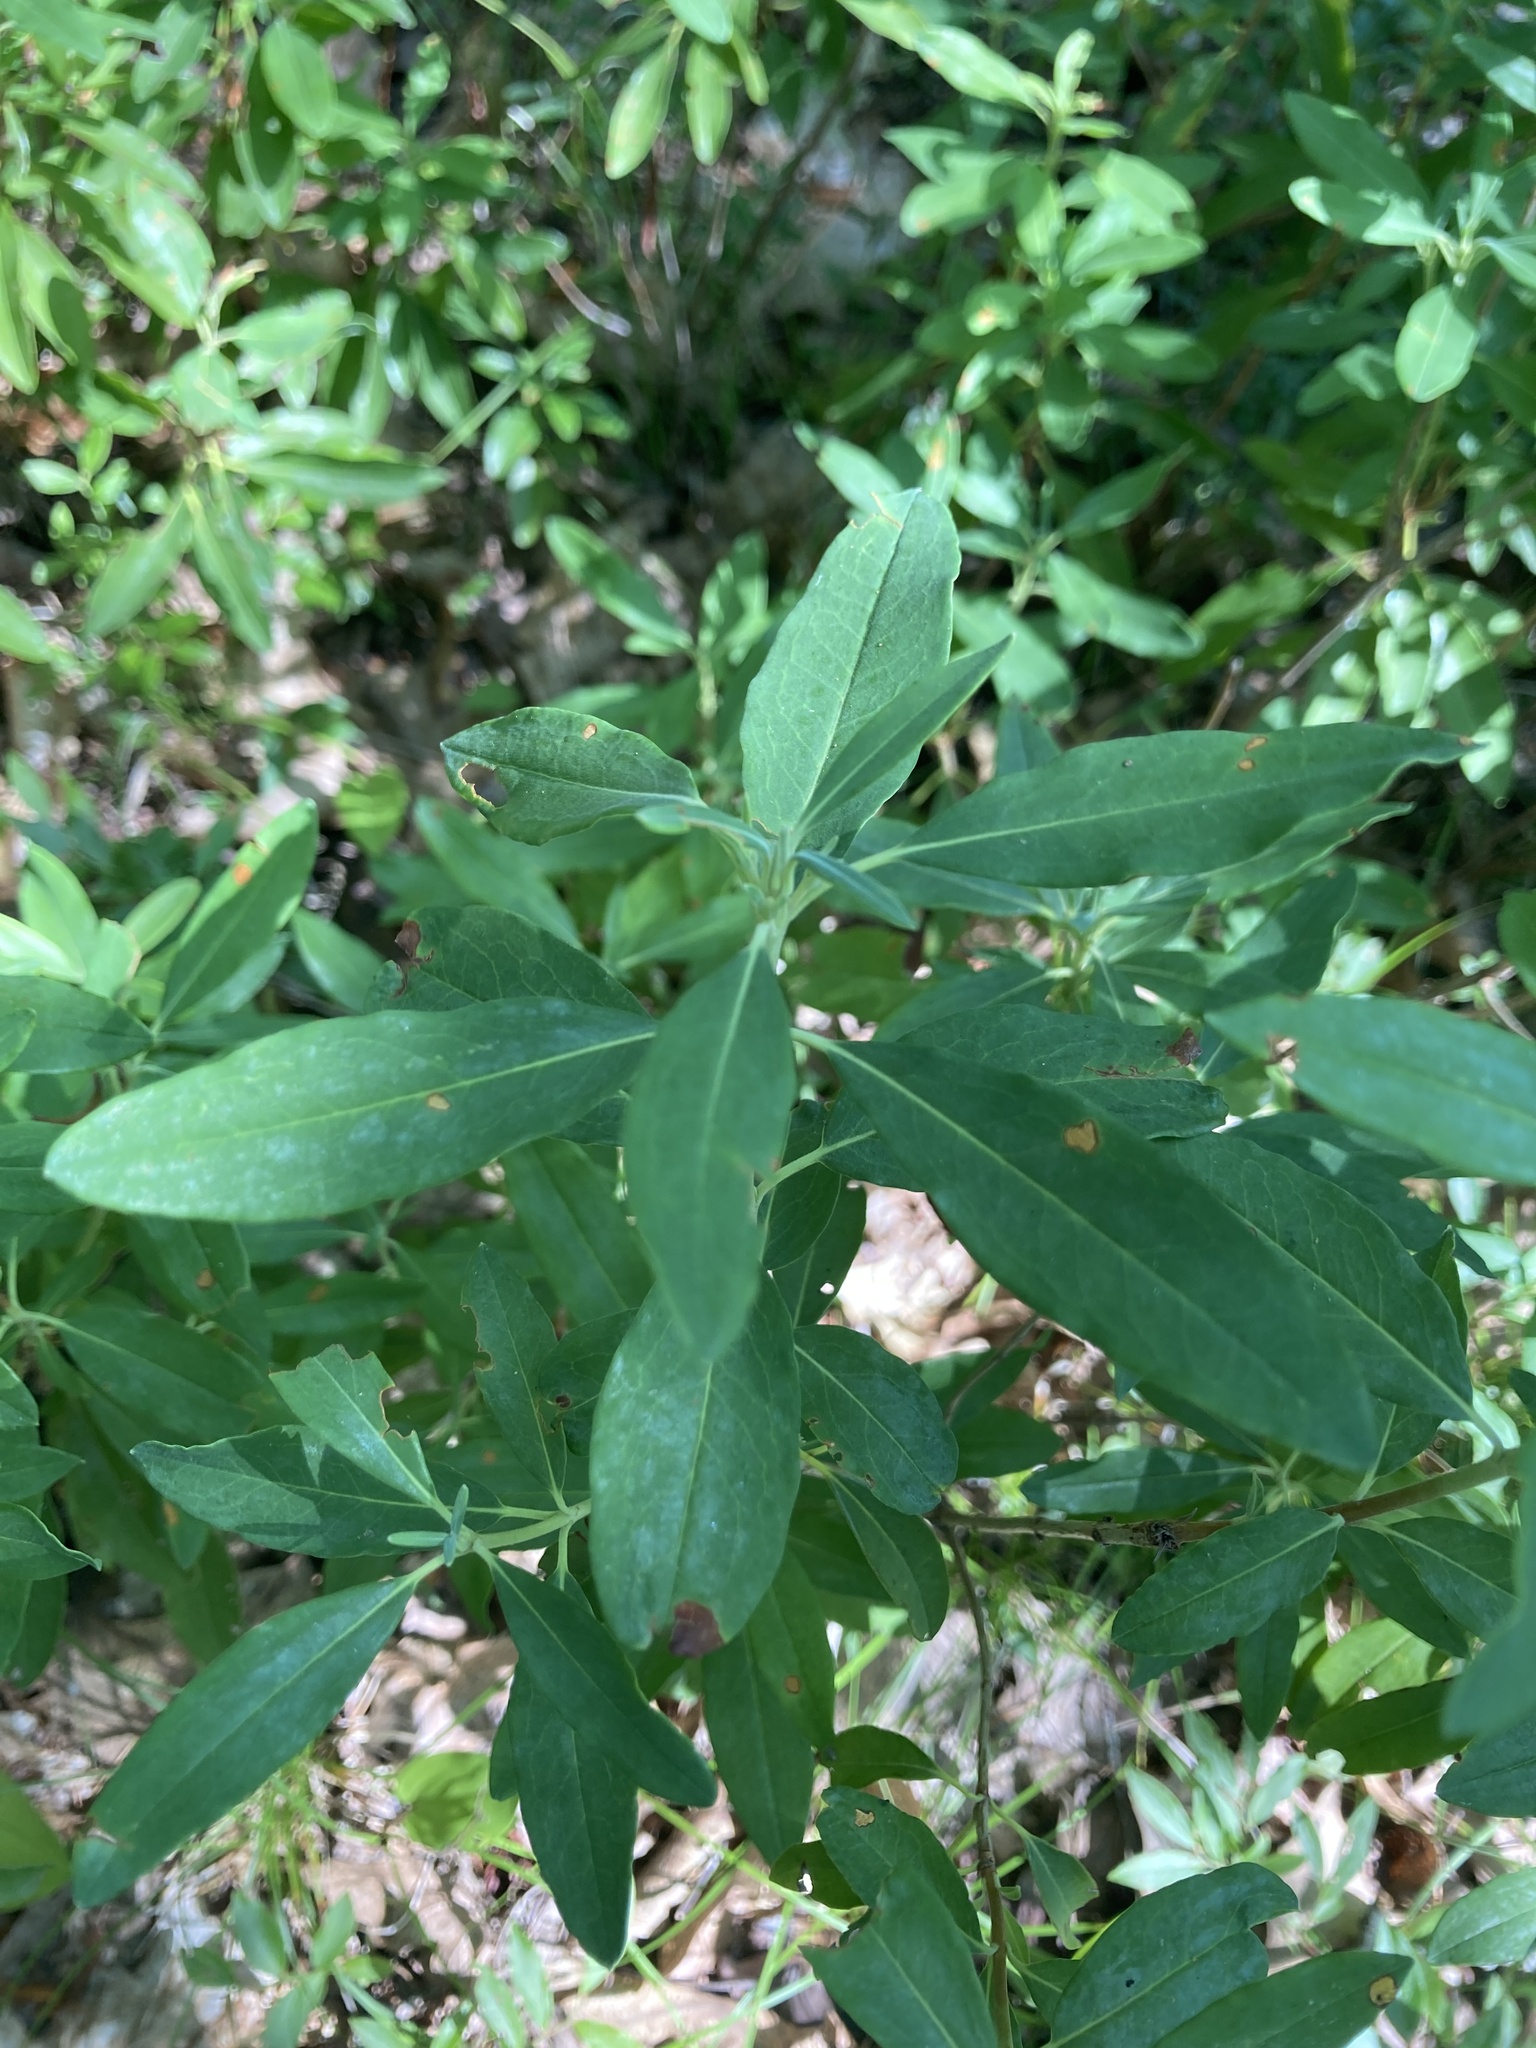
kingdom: Plantae
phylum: Tracheophyta
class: Magnoliopsida
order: Ericales
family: Ericaceae
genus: Kalmia
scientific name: Kalmia angustifolia
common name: Sheep-laurel
